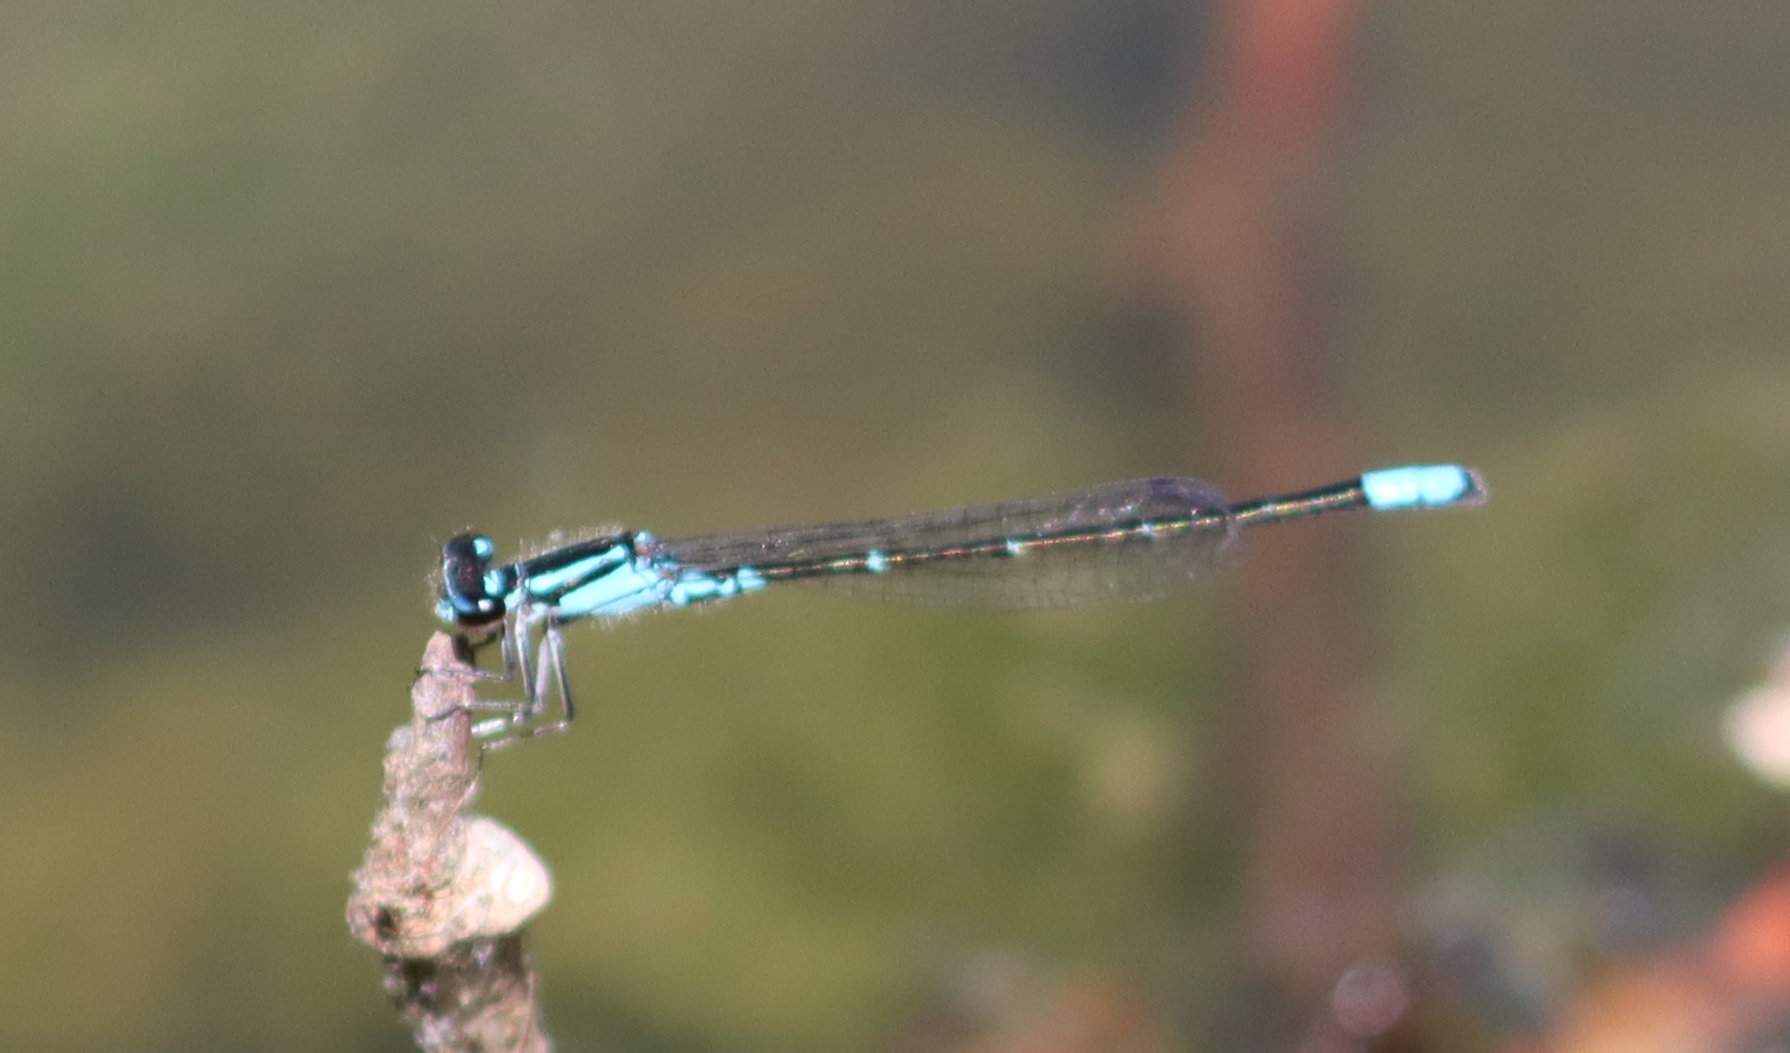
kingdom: Animalia
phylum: Arthropoda
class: Insecta
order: Odonata
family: Coenagrionidae
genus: Enallagma
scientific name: Enallagma geminatum
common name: Skimming bluet
